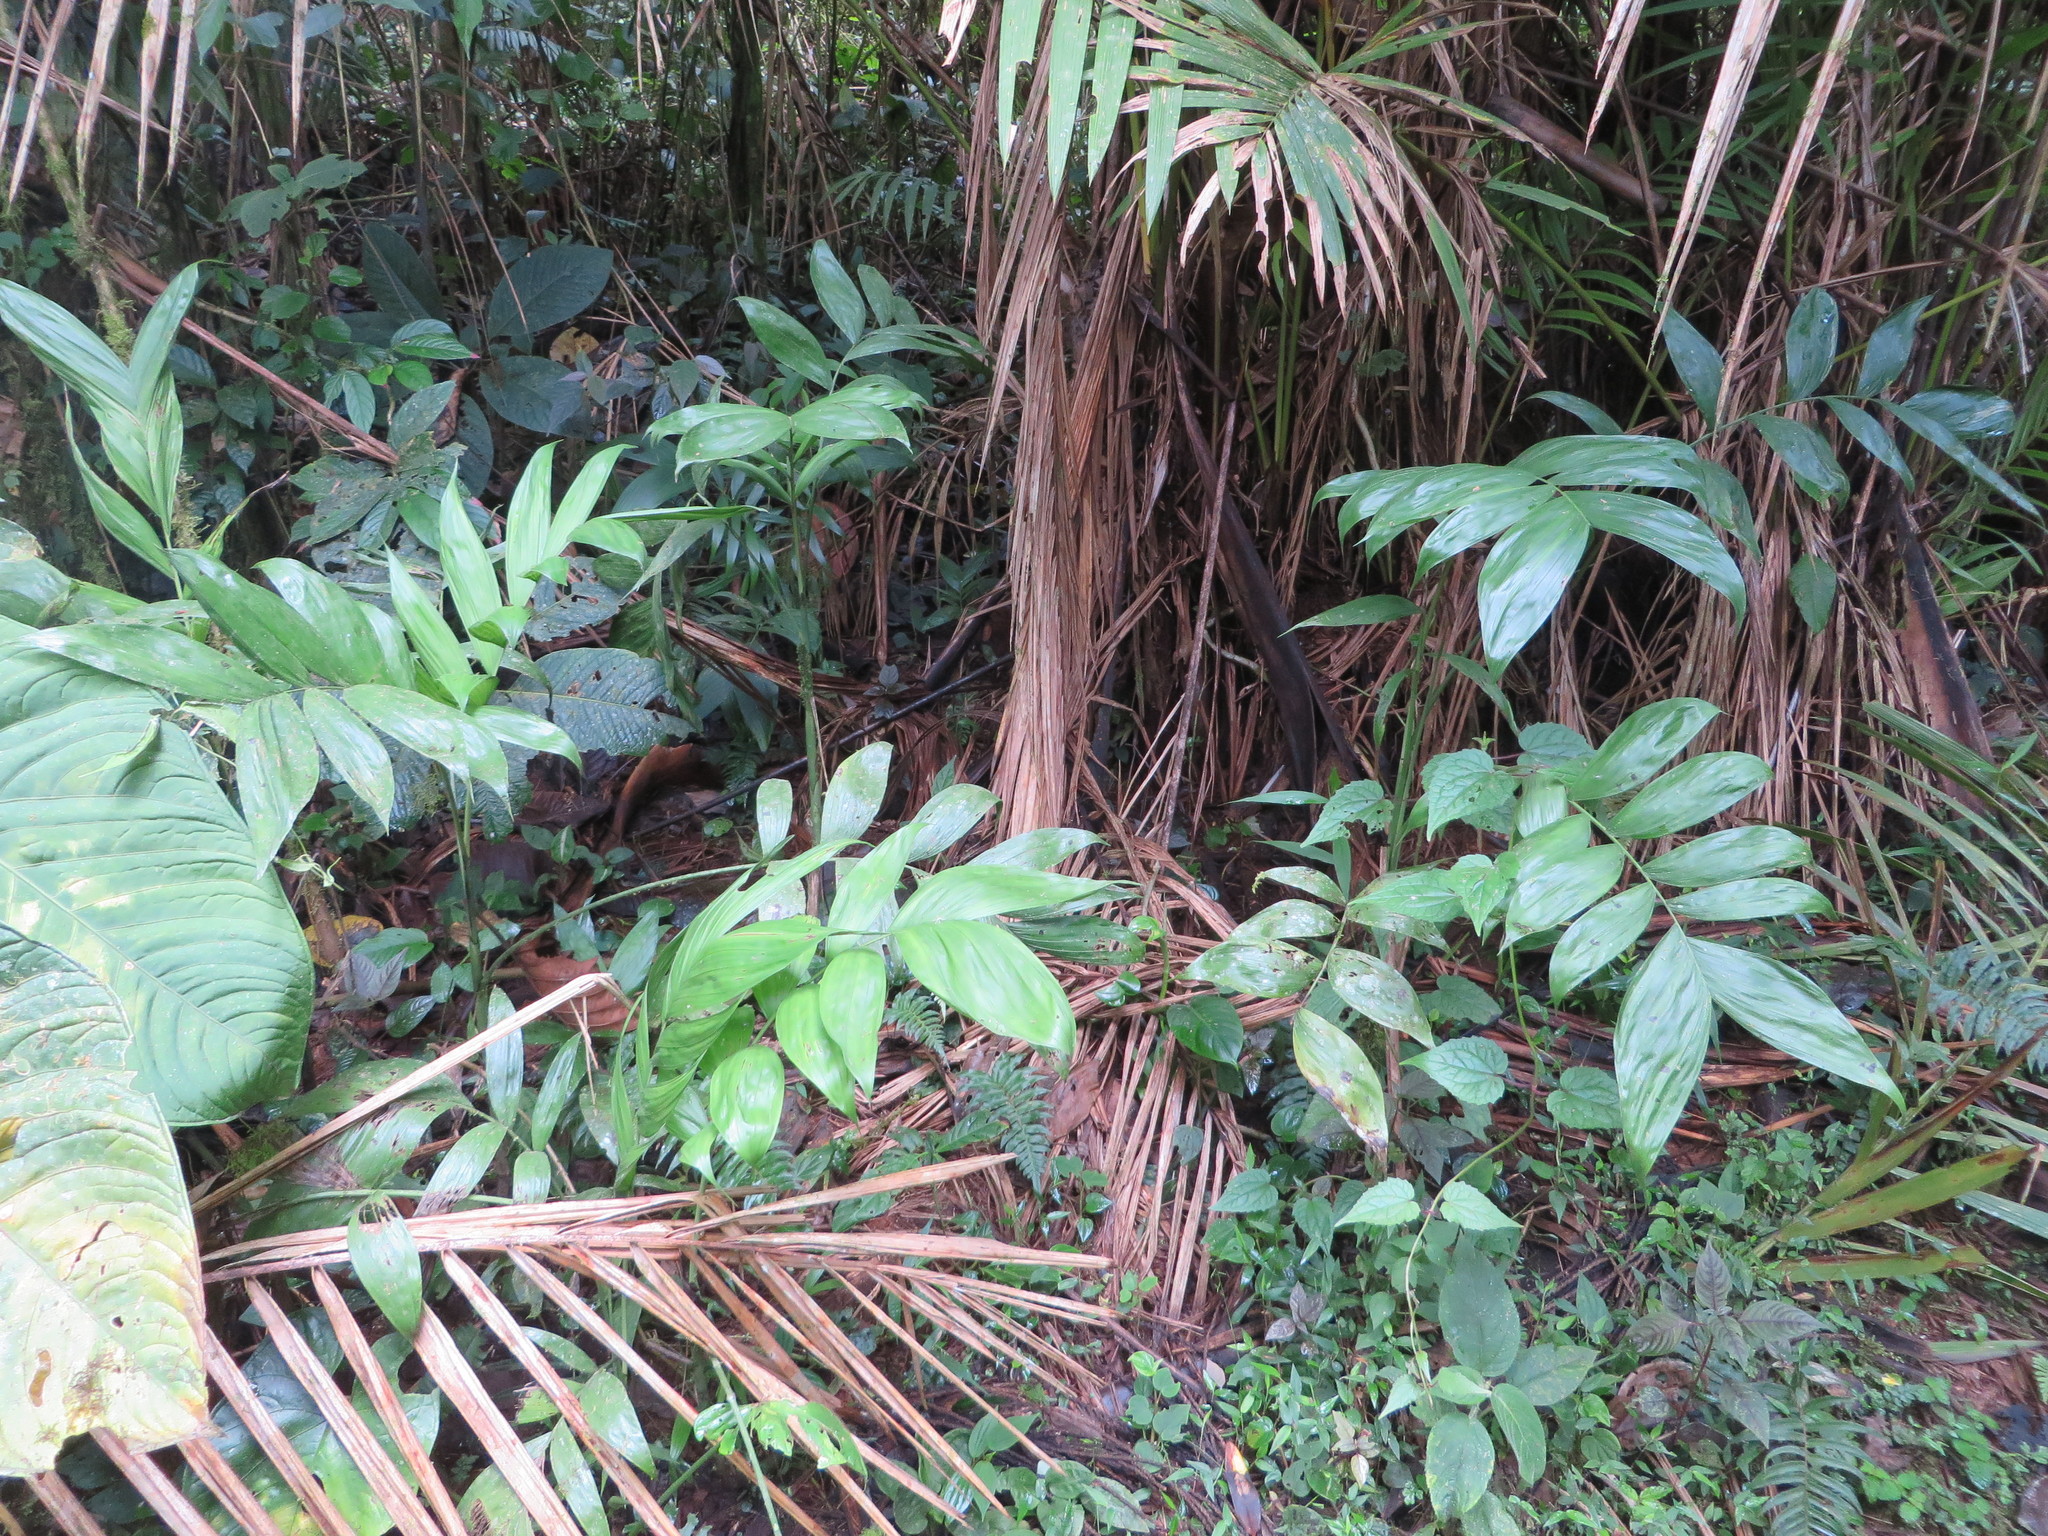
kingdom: Plantae
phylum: Tracheophyta
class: Liliopsida
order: Arecales
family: Arecaceae
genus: Chamaedorea
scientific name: Chamaedorea pinnatifrons
